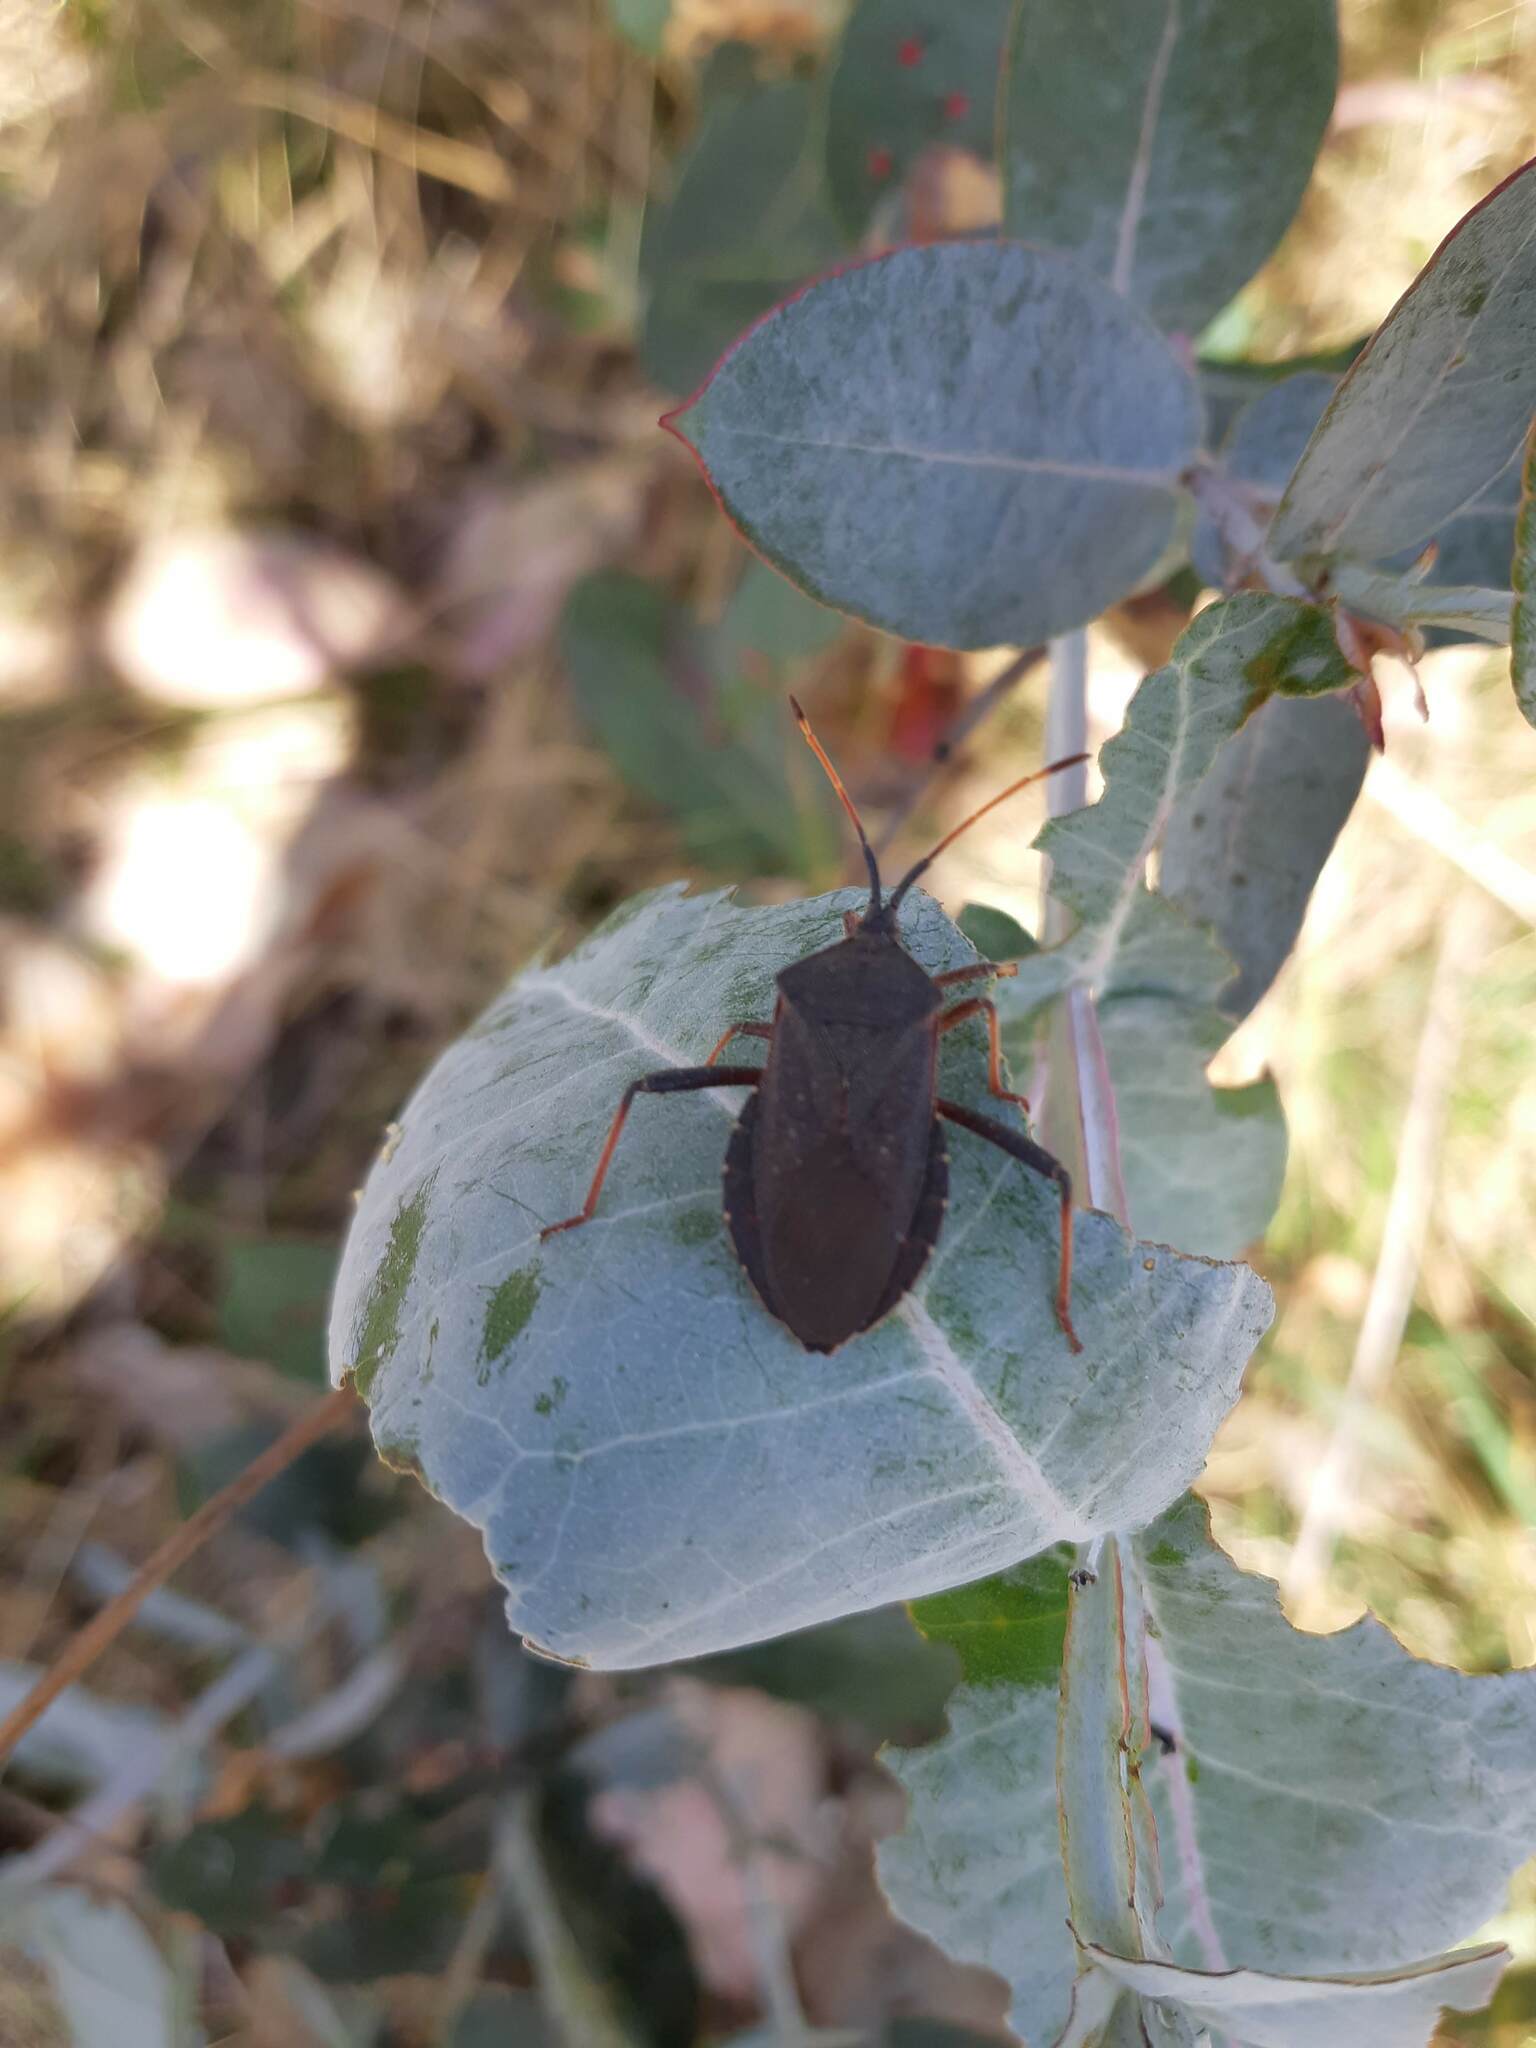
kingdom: Animalia
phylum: Arthropoda
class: Insecta
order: Hemiptera
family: Coreidae
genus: Amorbus
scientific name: Amorbus rubiginosus
